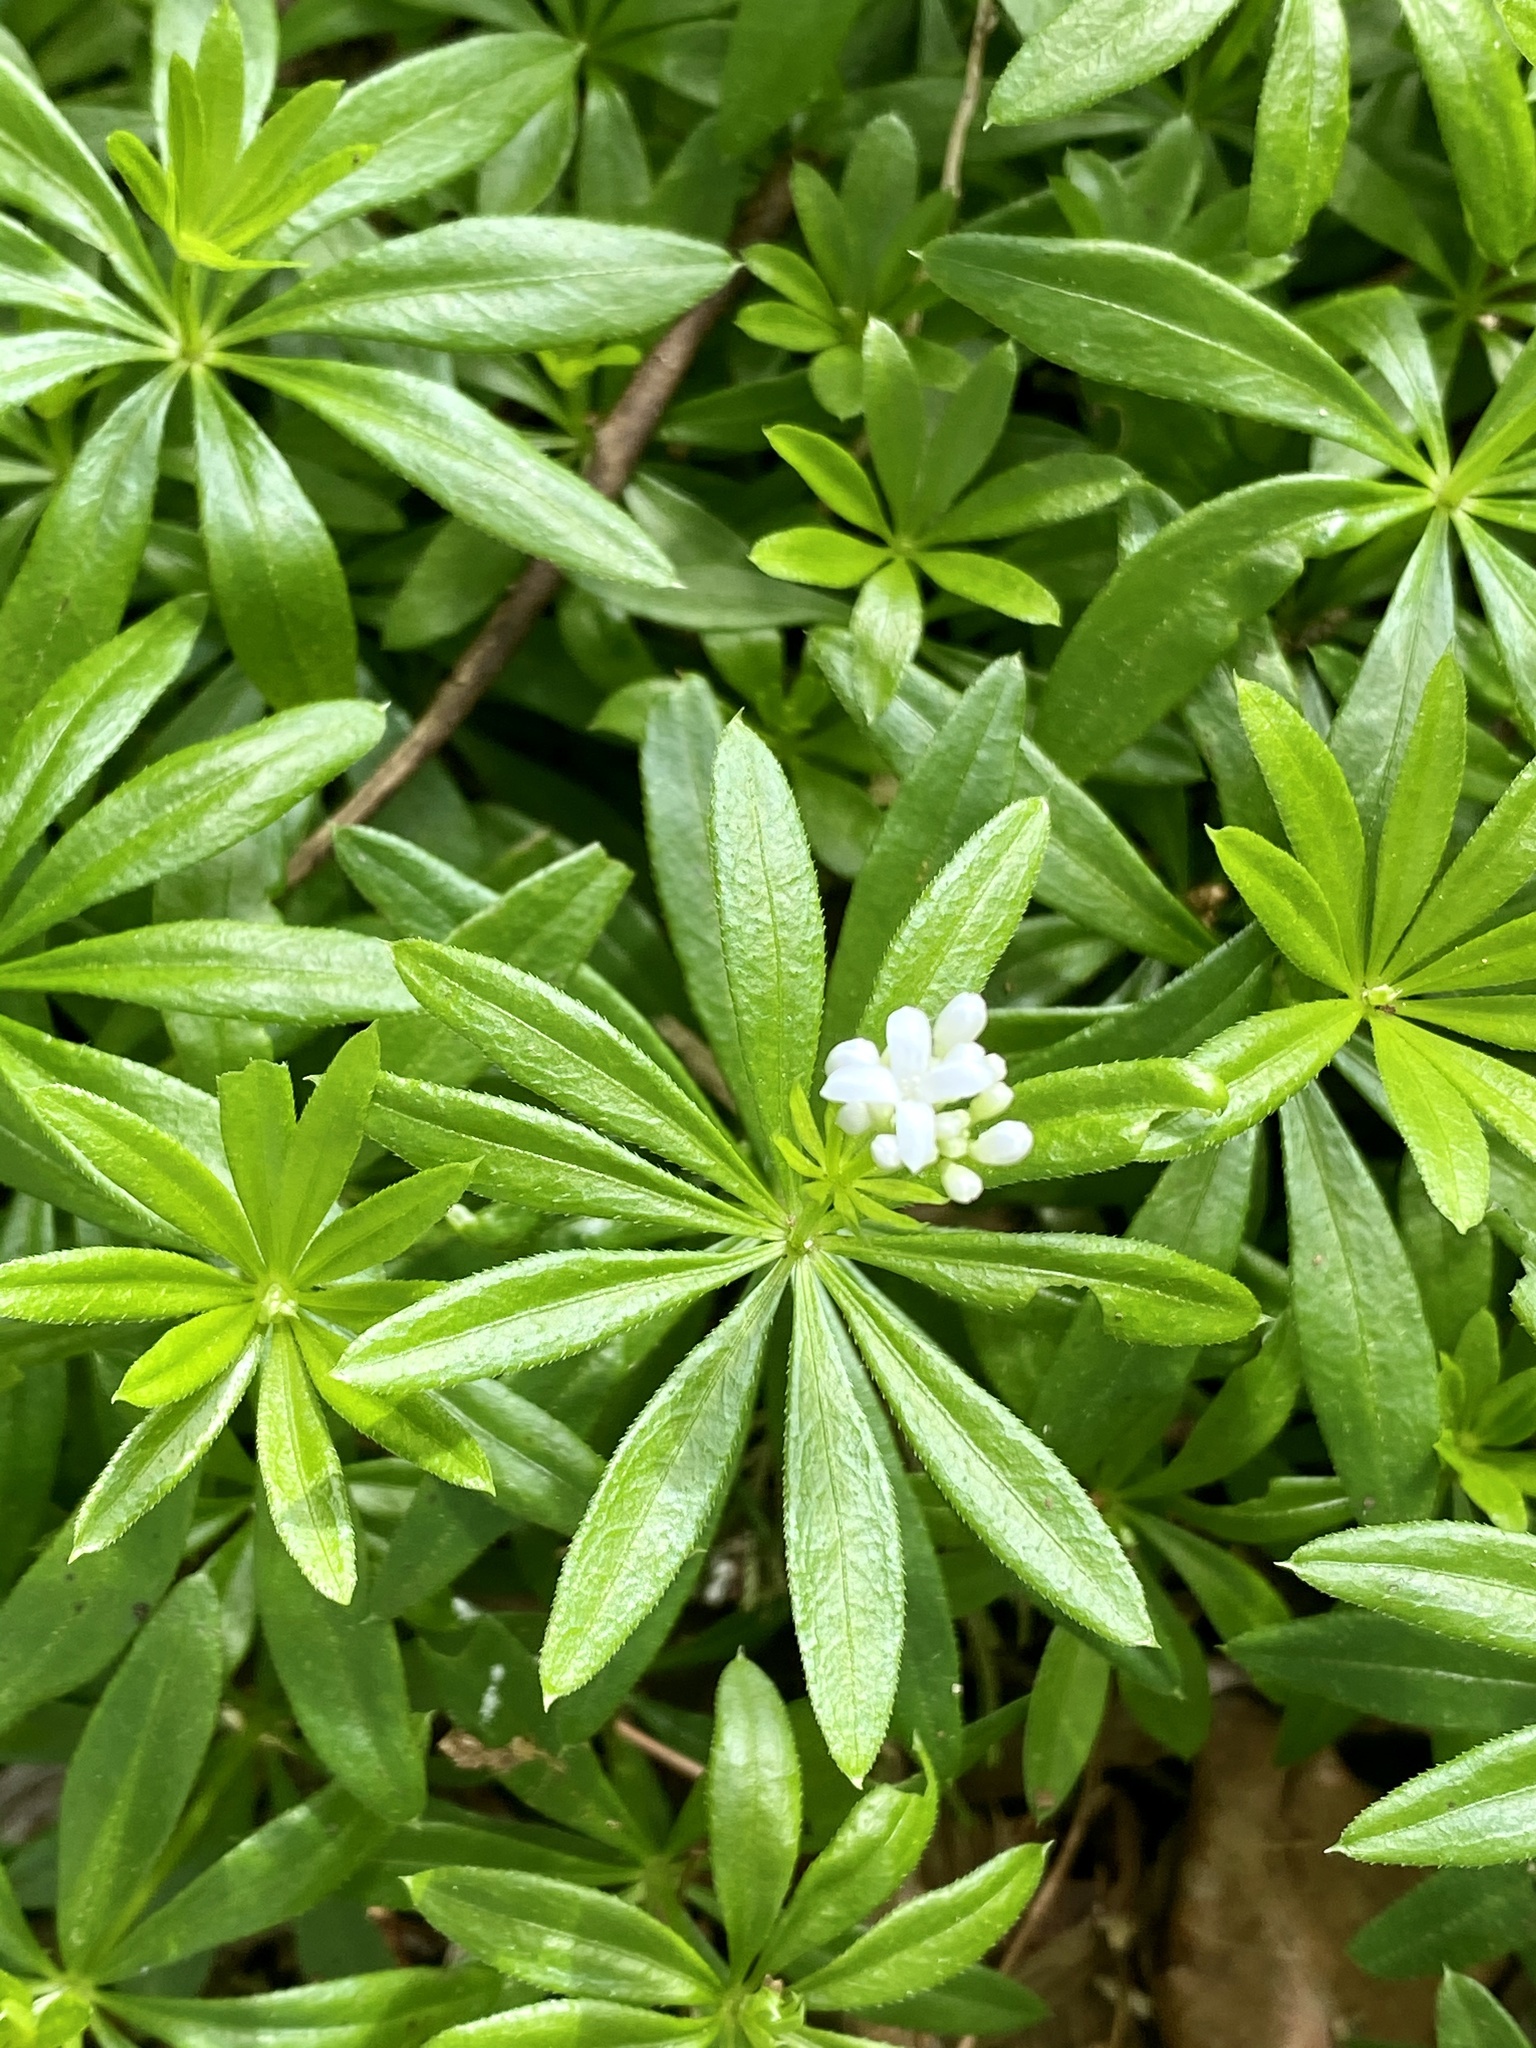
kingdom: Plantae
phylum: Tracheophyta
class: Magnoliopsida
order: Gentianales
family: Rubiaceae
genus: Galium
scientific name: Galium odoratum
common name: Sweet woodruff
